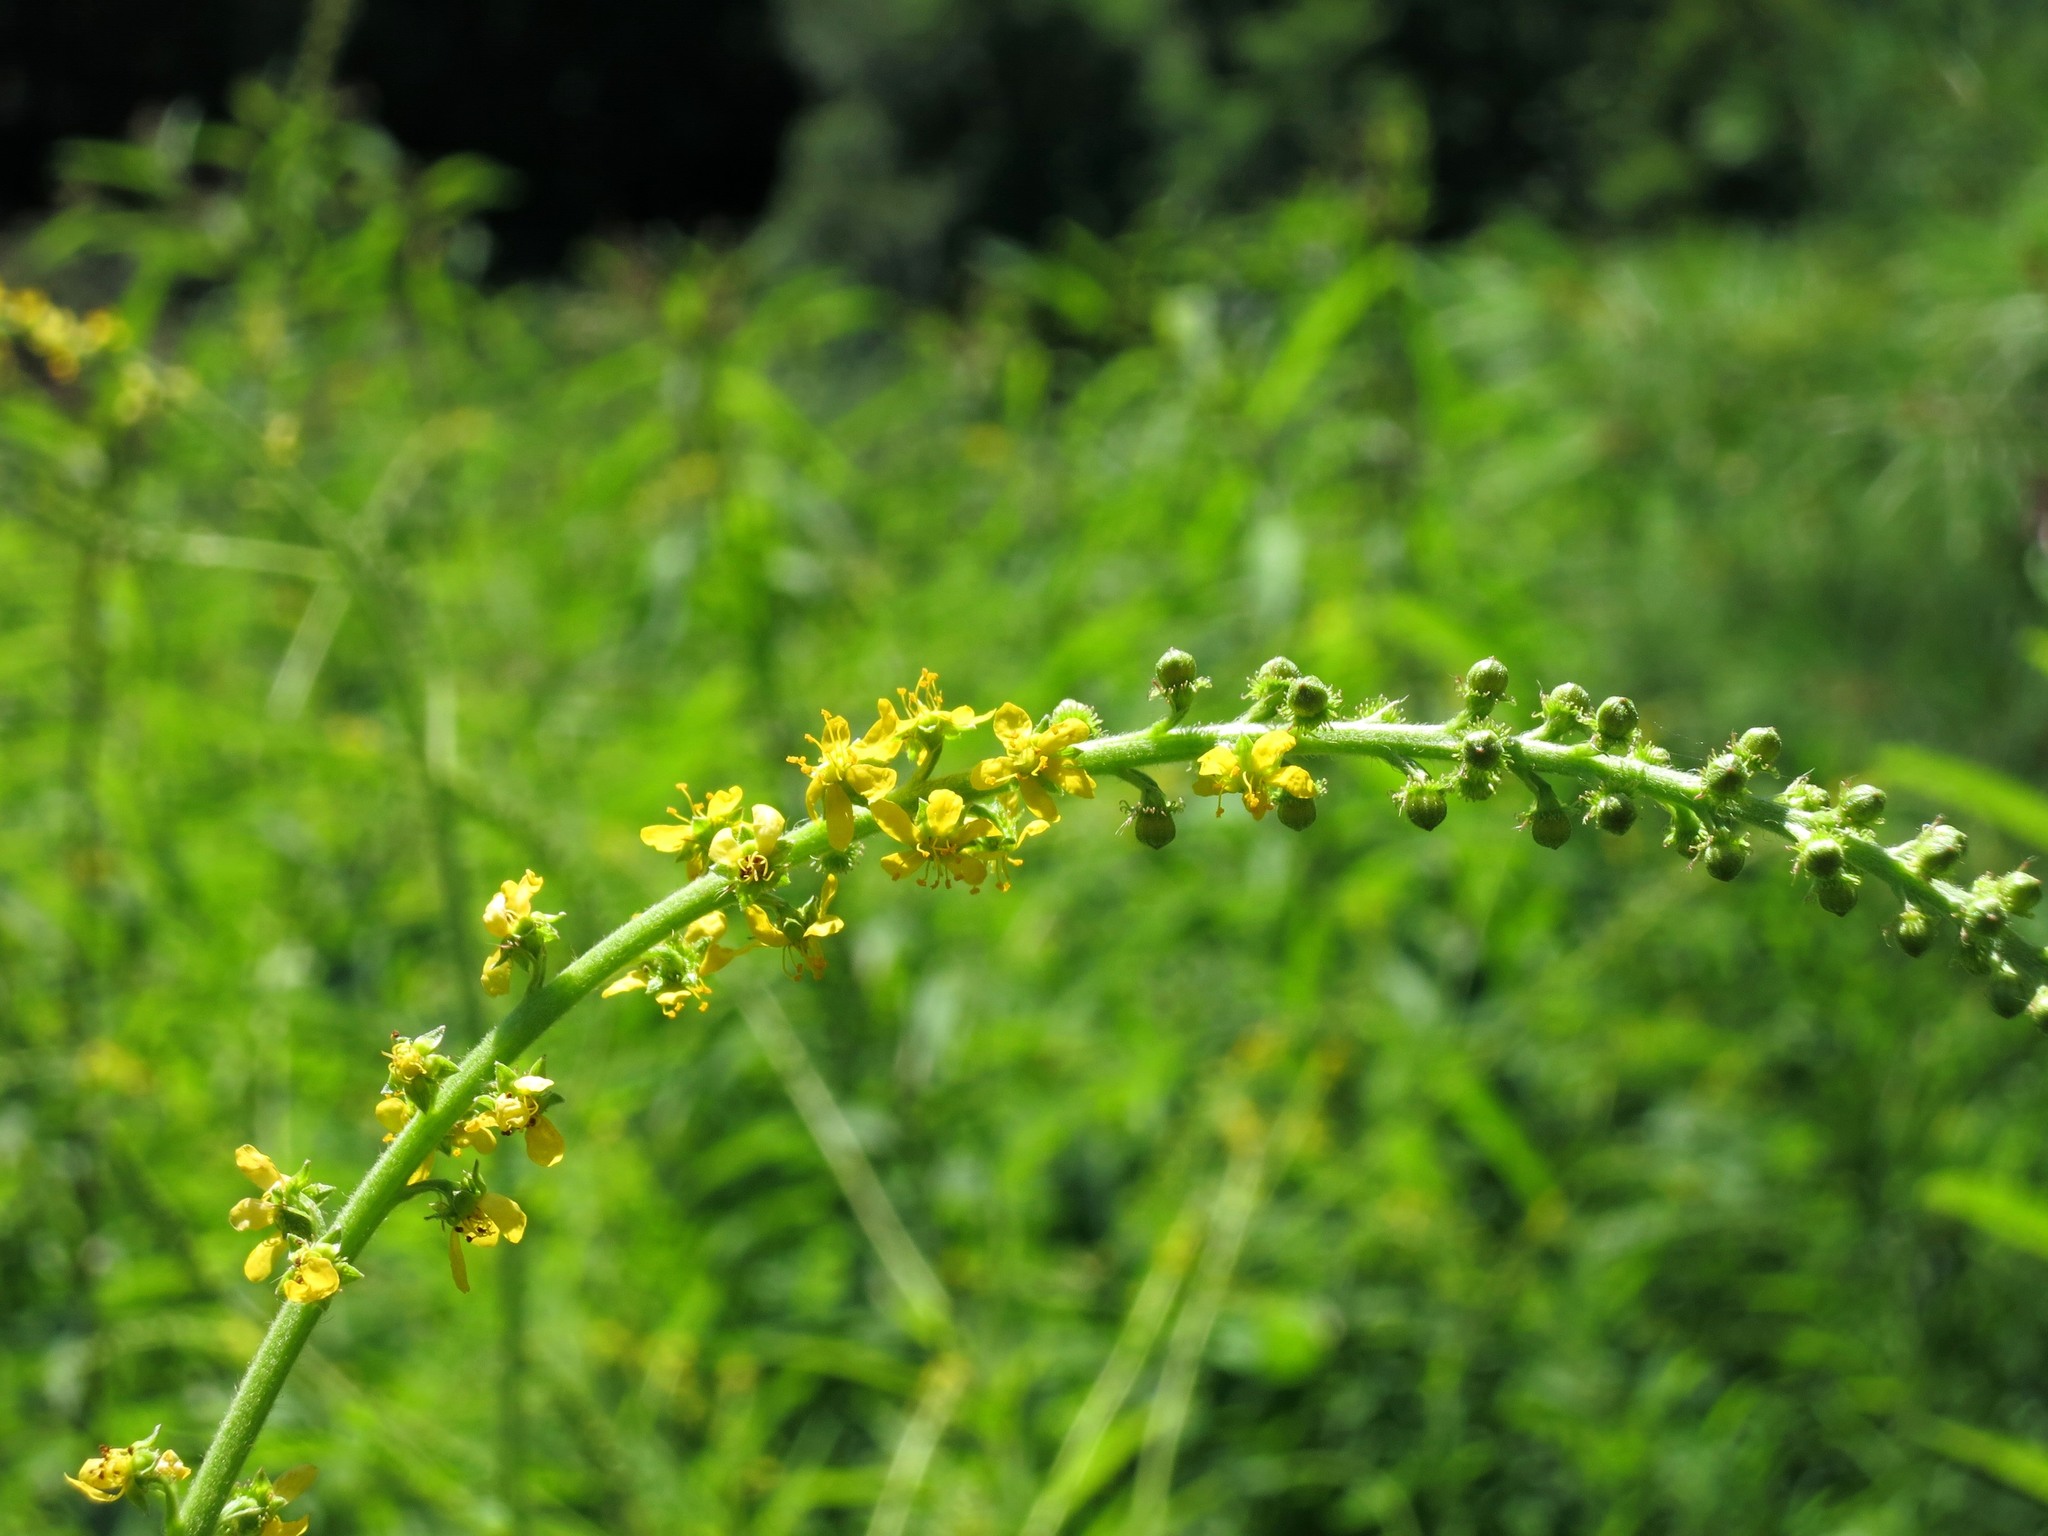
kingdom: Plantae
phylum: Tracheophyta
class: Magnoliopsida
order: Rosales
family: Rosaceae
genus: Agrimonia
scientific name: Agrimonia
